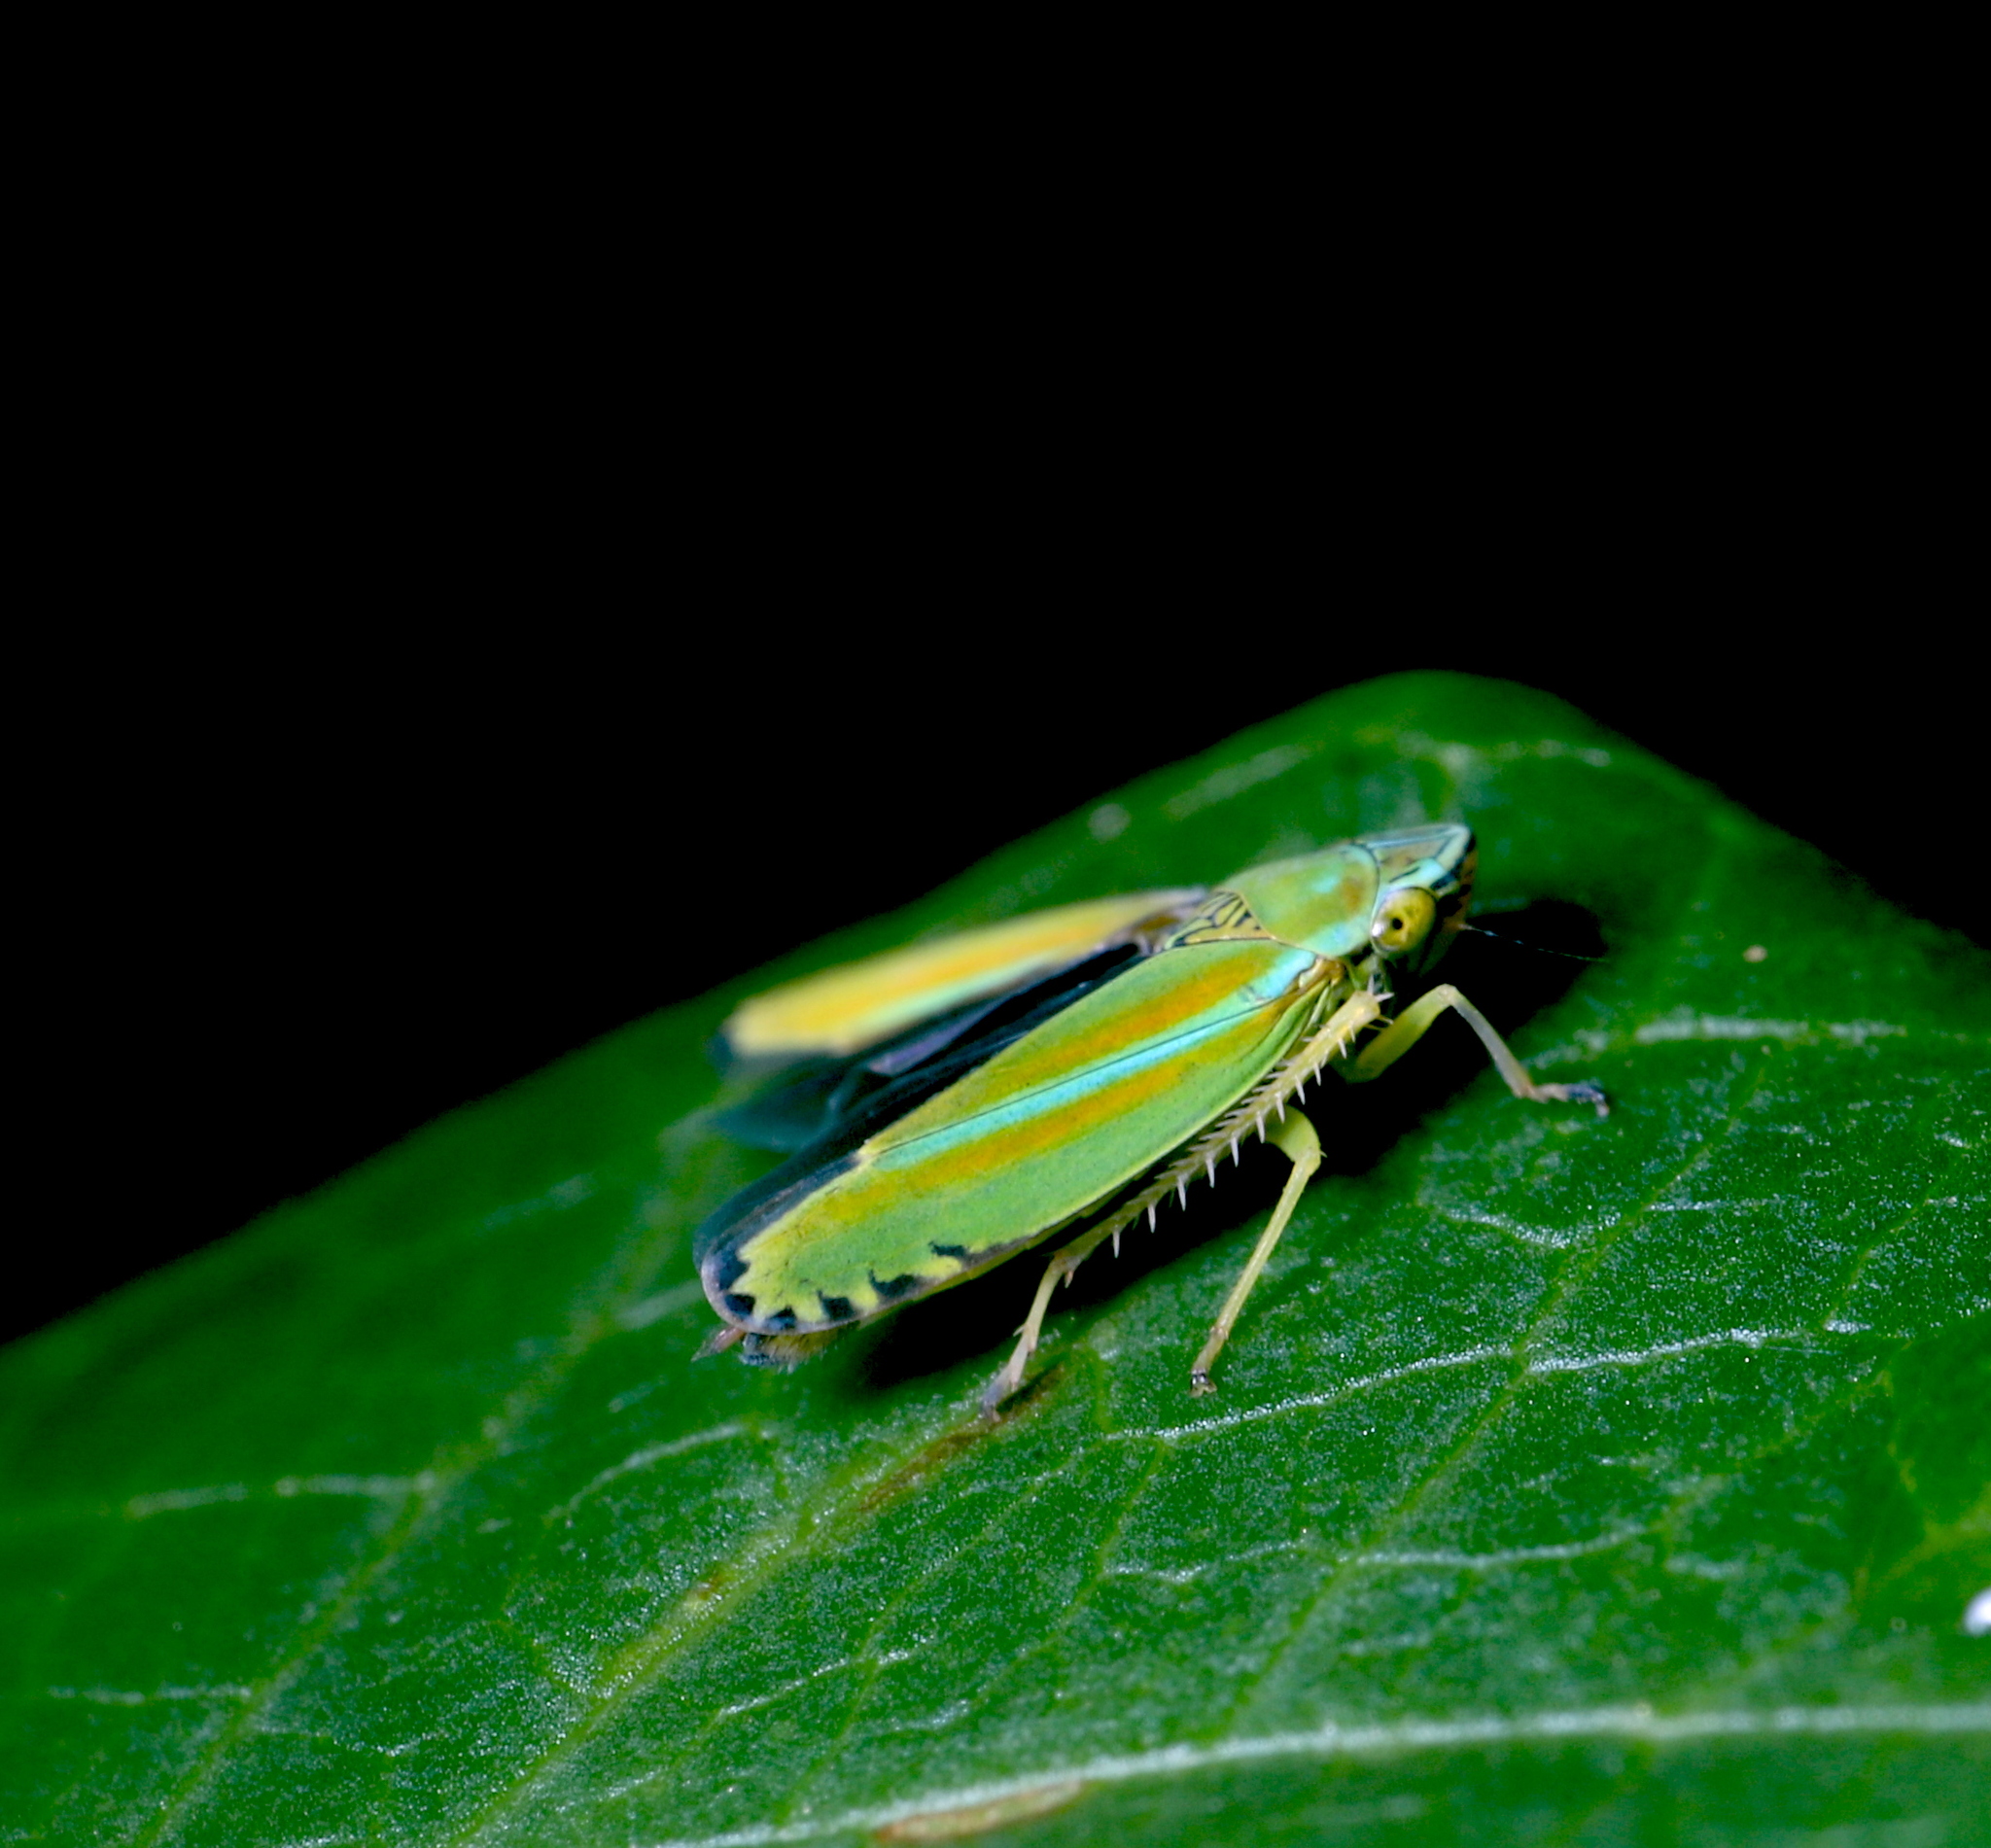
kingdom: Animalia
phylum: Arthropoda
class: Insecta
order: Hemiptera
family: Cicadellidae
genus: Graphocephala
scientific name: Graphocephala versuta
